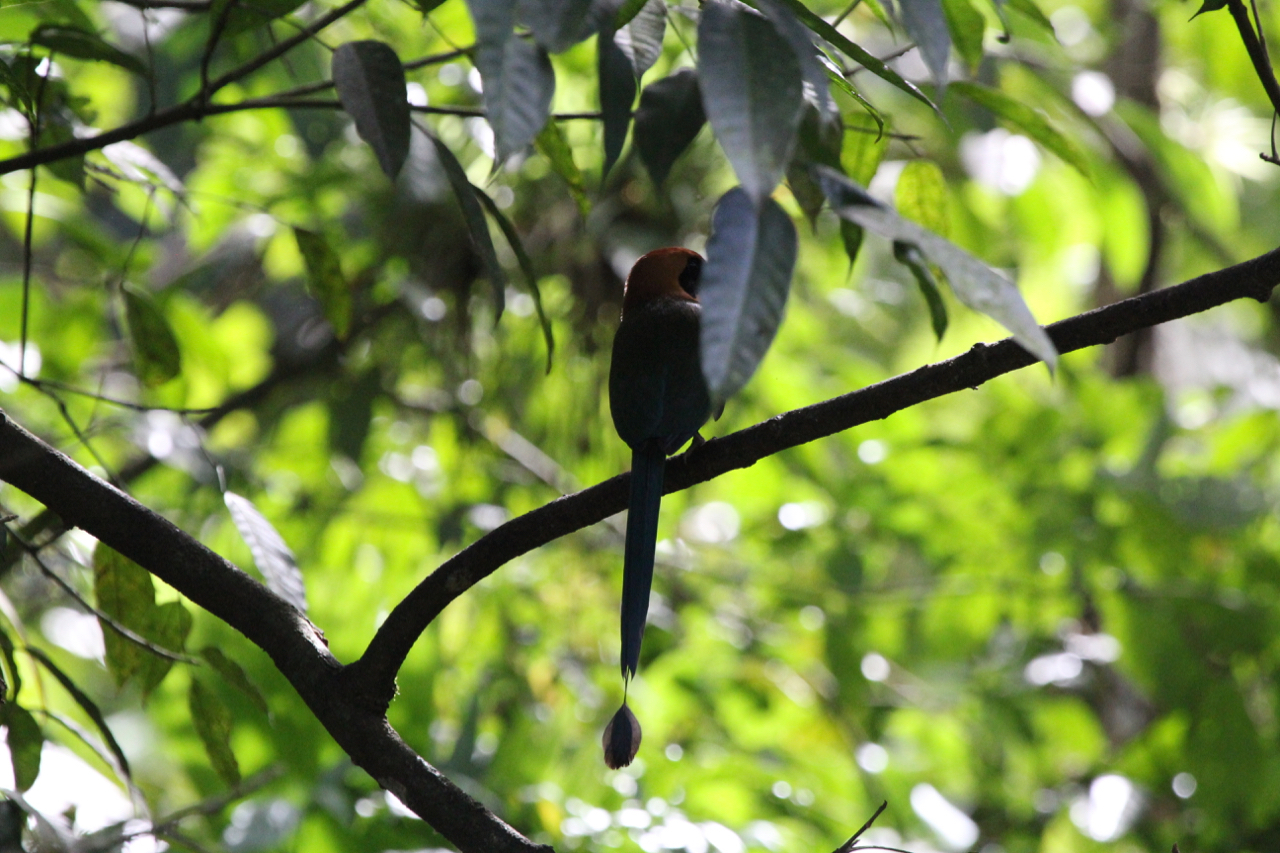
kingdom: Animalia
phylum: Chordata
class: Aves
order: Coraciiformes
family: Momotidae
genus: Baryphthengus
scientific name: Baryphthengus martii
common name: Rufous motmot
